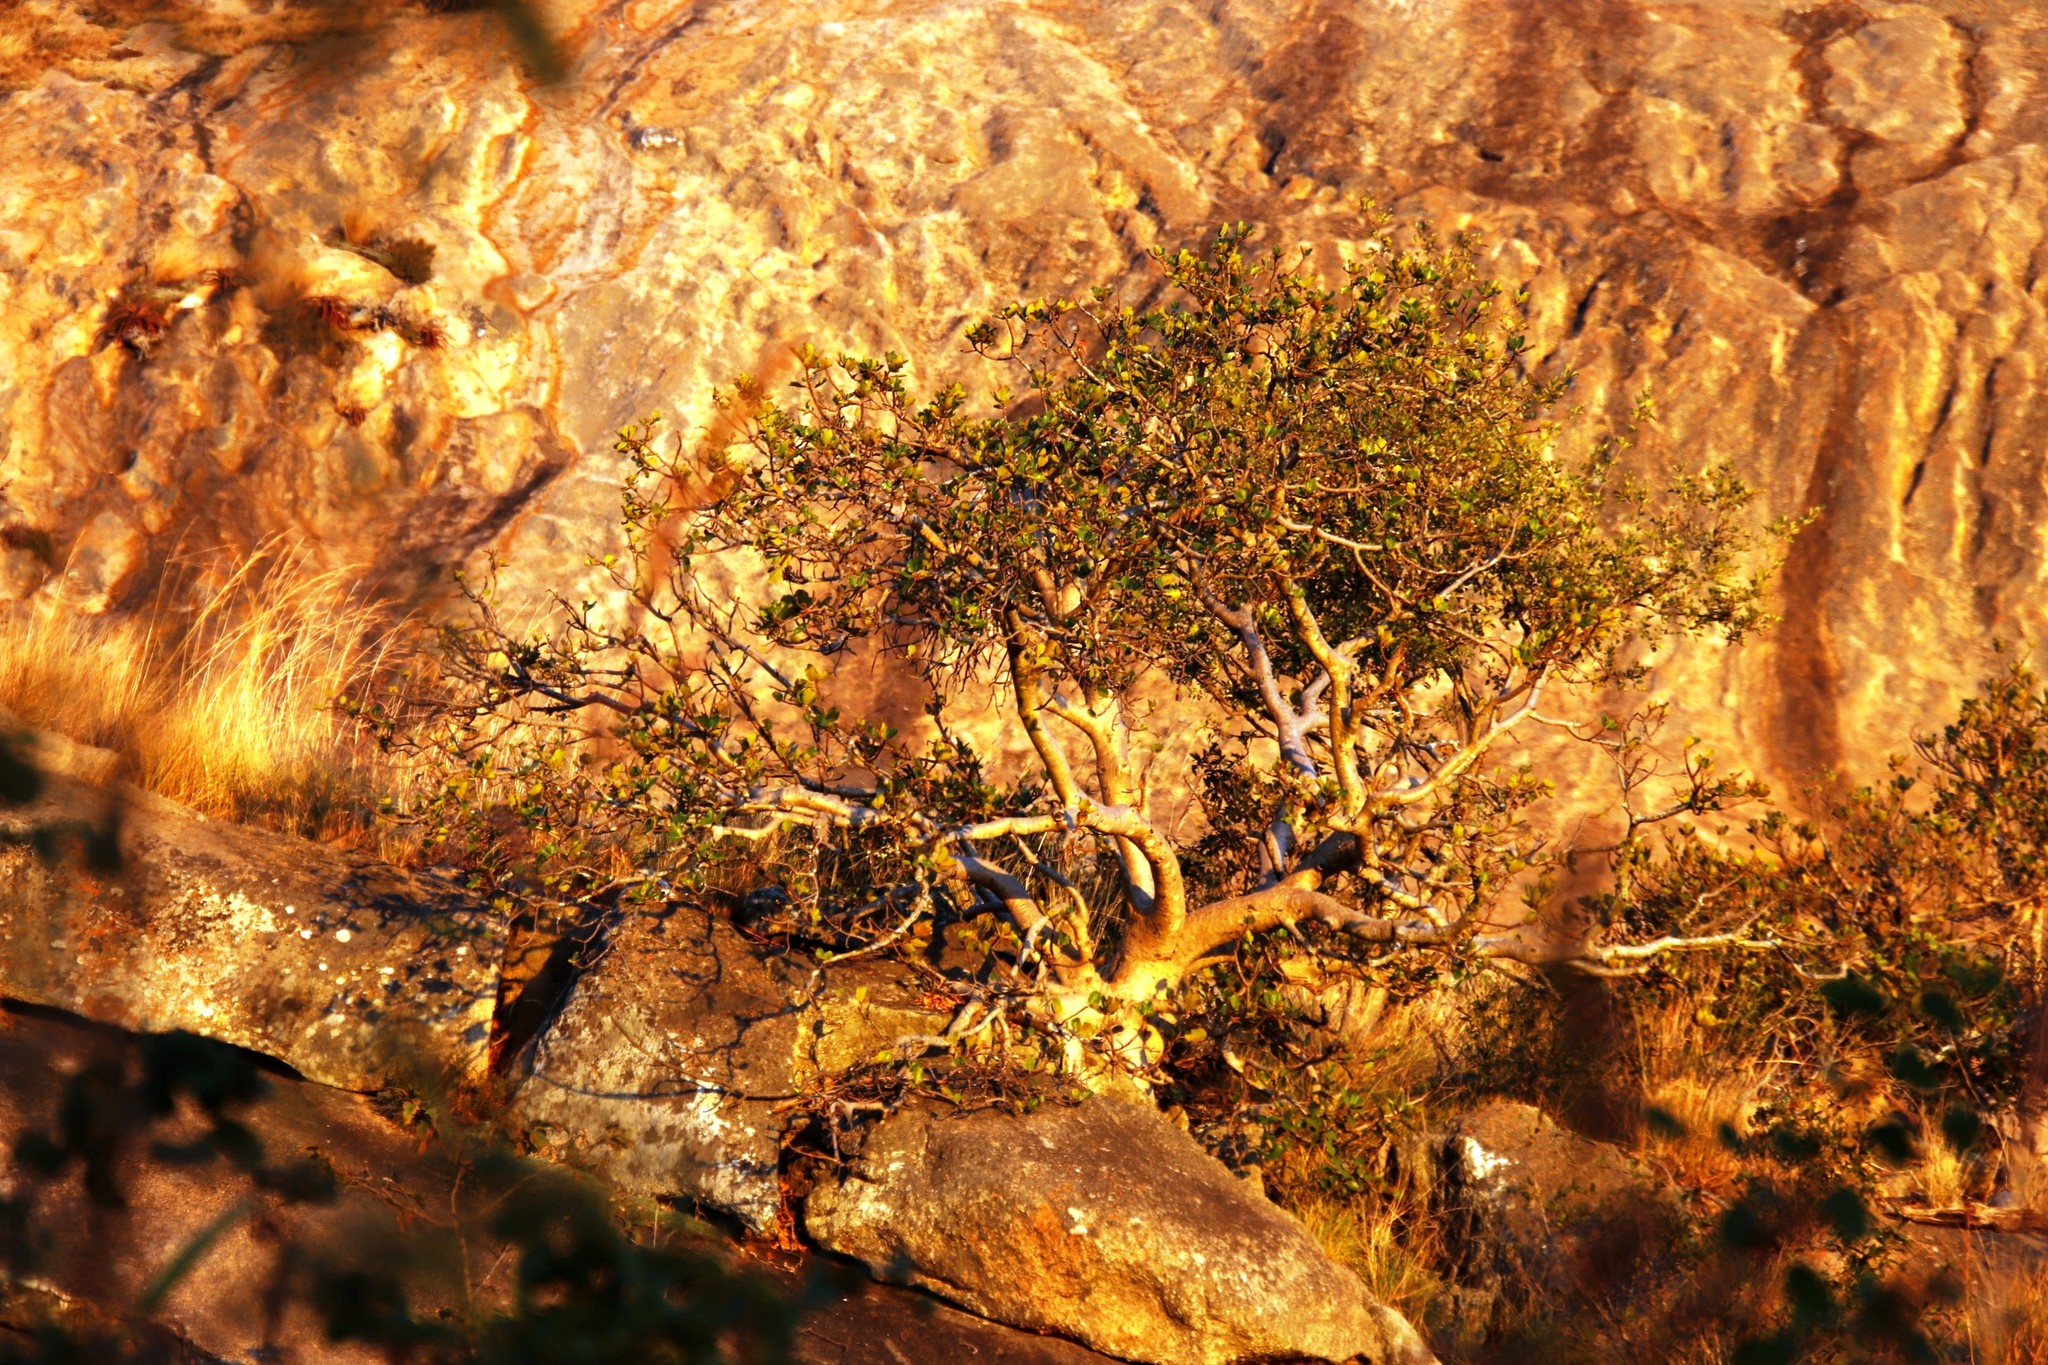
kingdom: Plantae
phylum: Tracheophyta
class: Magnoliopsida
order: Rosales
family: Moraceae
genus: Ficus
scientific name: Ficus glumosa
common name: Hairy rock fig
